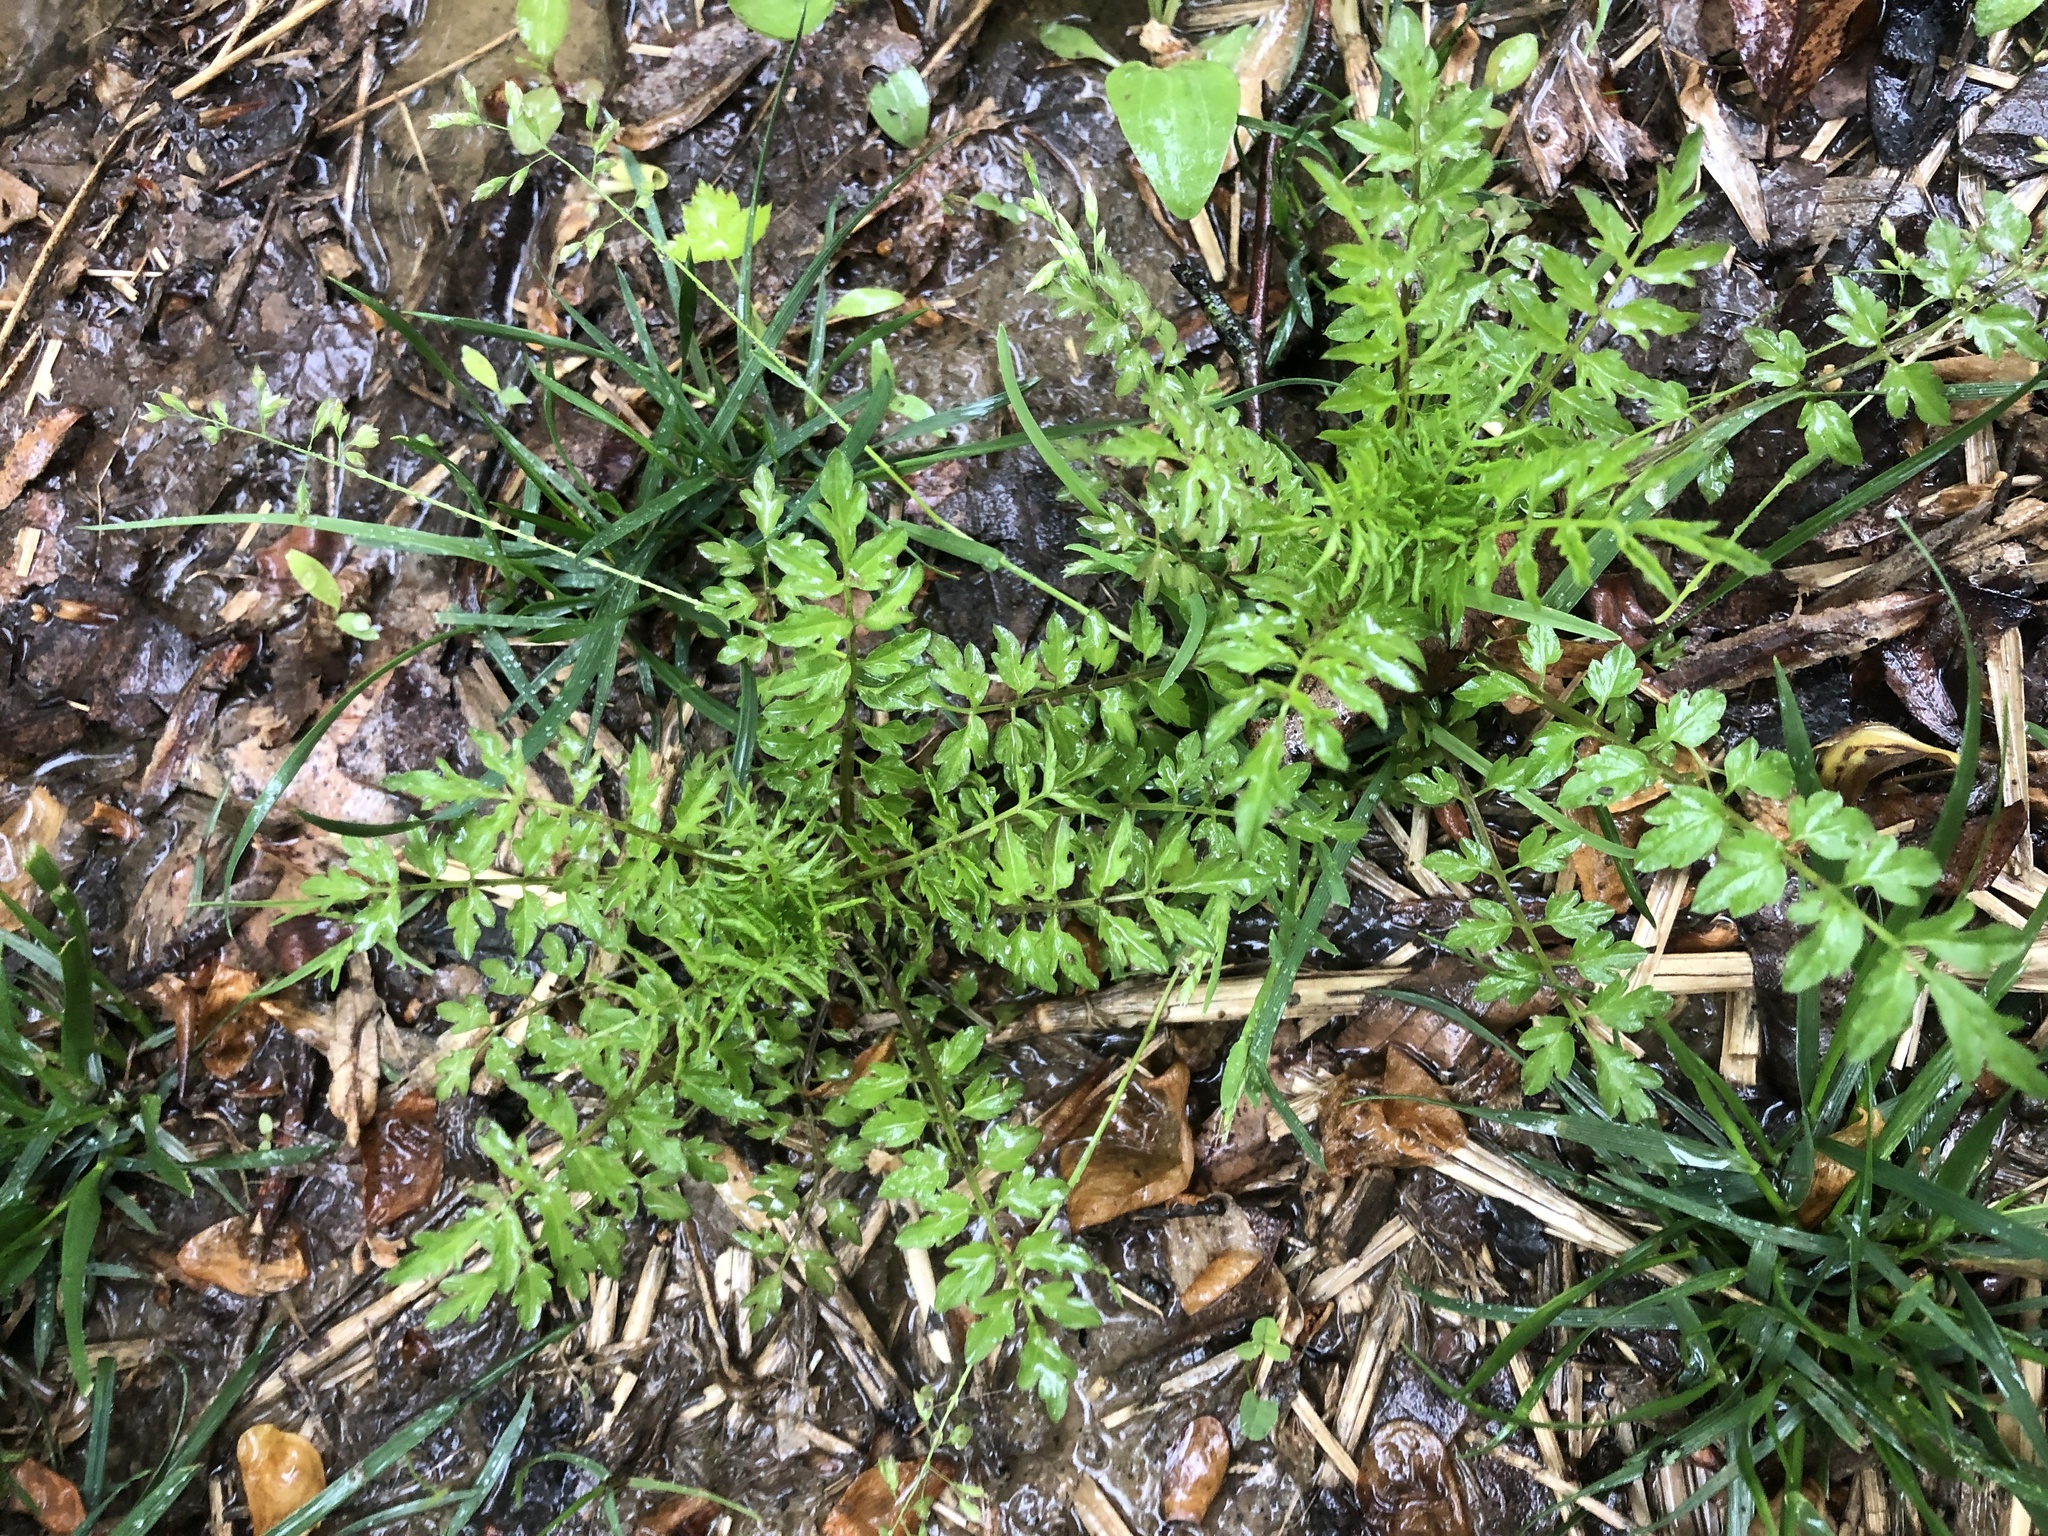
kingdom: Plantae
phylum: Tracheophyta
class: Magnoliopsida
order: Brassicales
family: Brassicaceae
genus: Cardamine
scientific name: Cardamine impatiens
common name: Narrow-leaved bitter-cress
